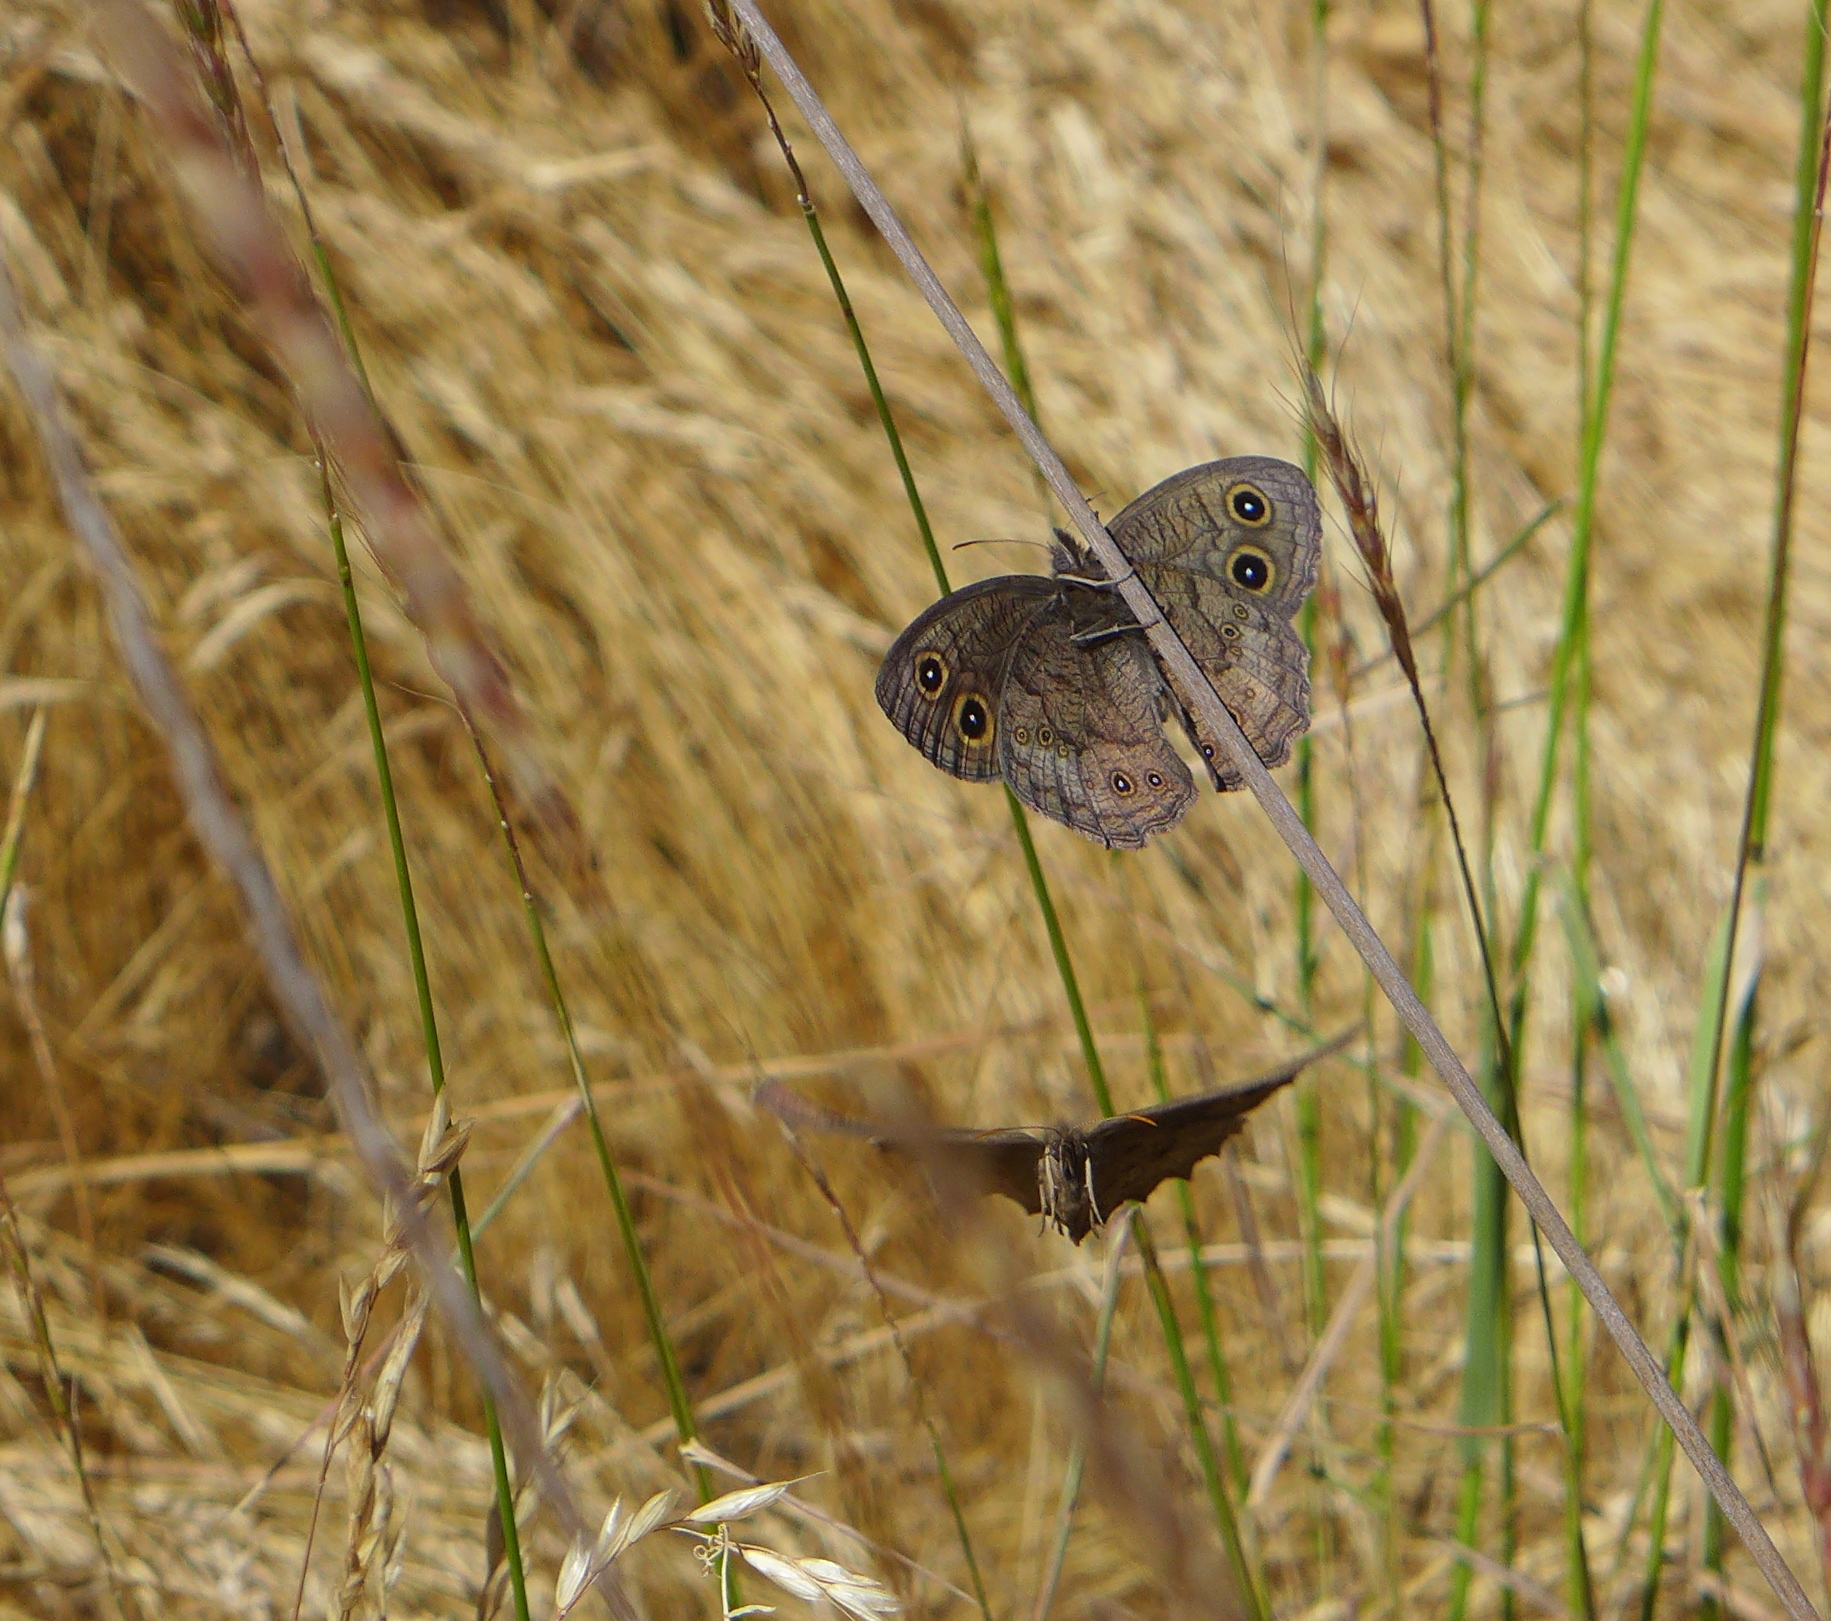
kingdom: Animalia
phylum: Arthropoda
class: Insecta
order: Lepidoptera
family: Nymphalidae
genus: Cercyonis
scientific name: Cercyonis pegala
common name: Common wood-nymph
